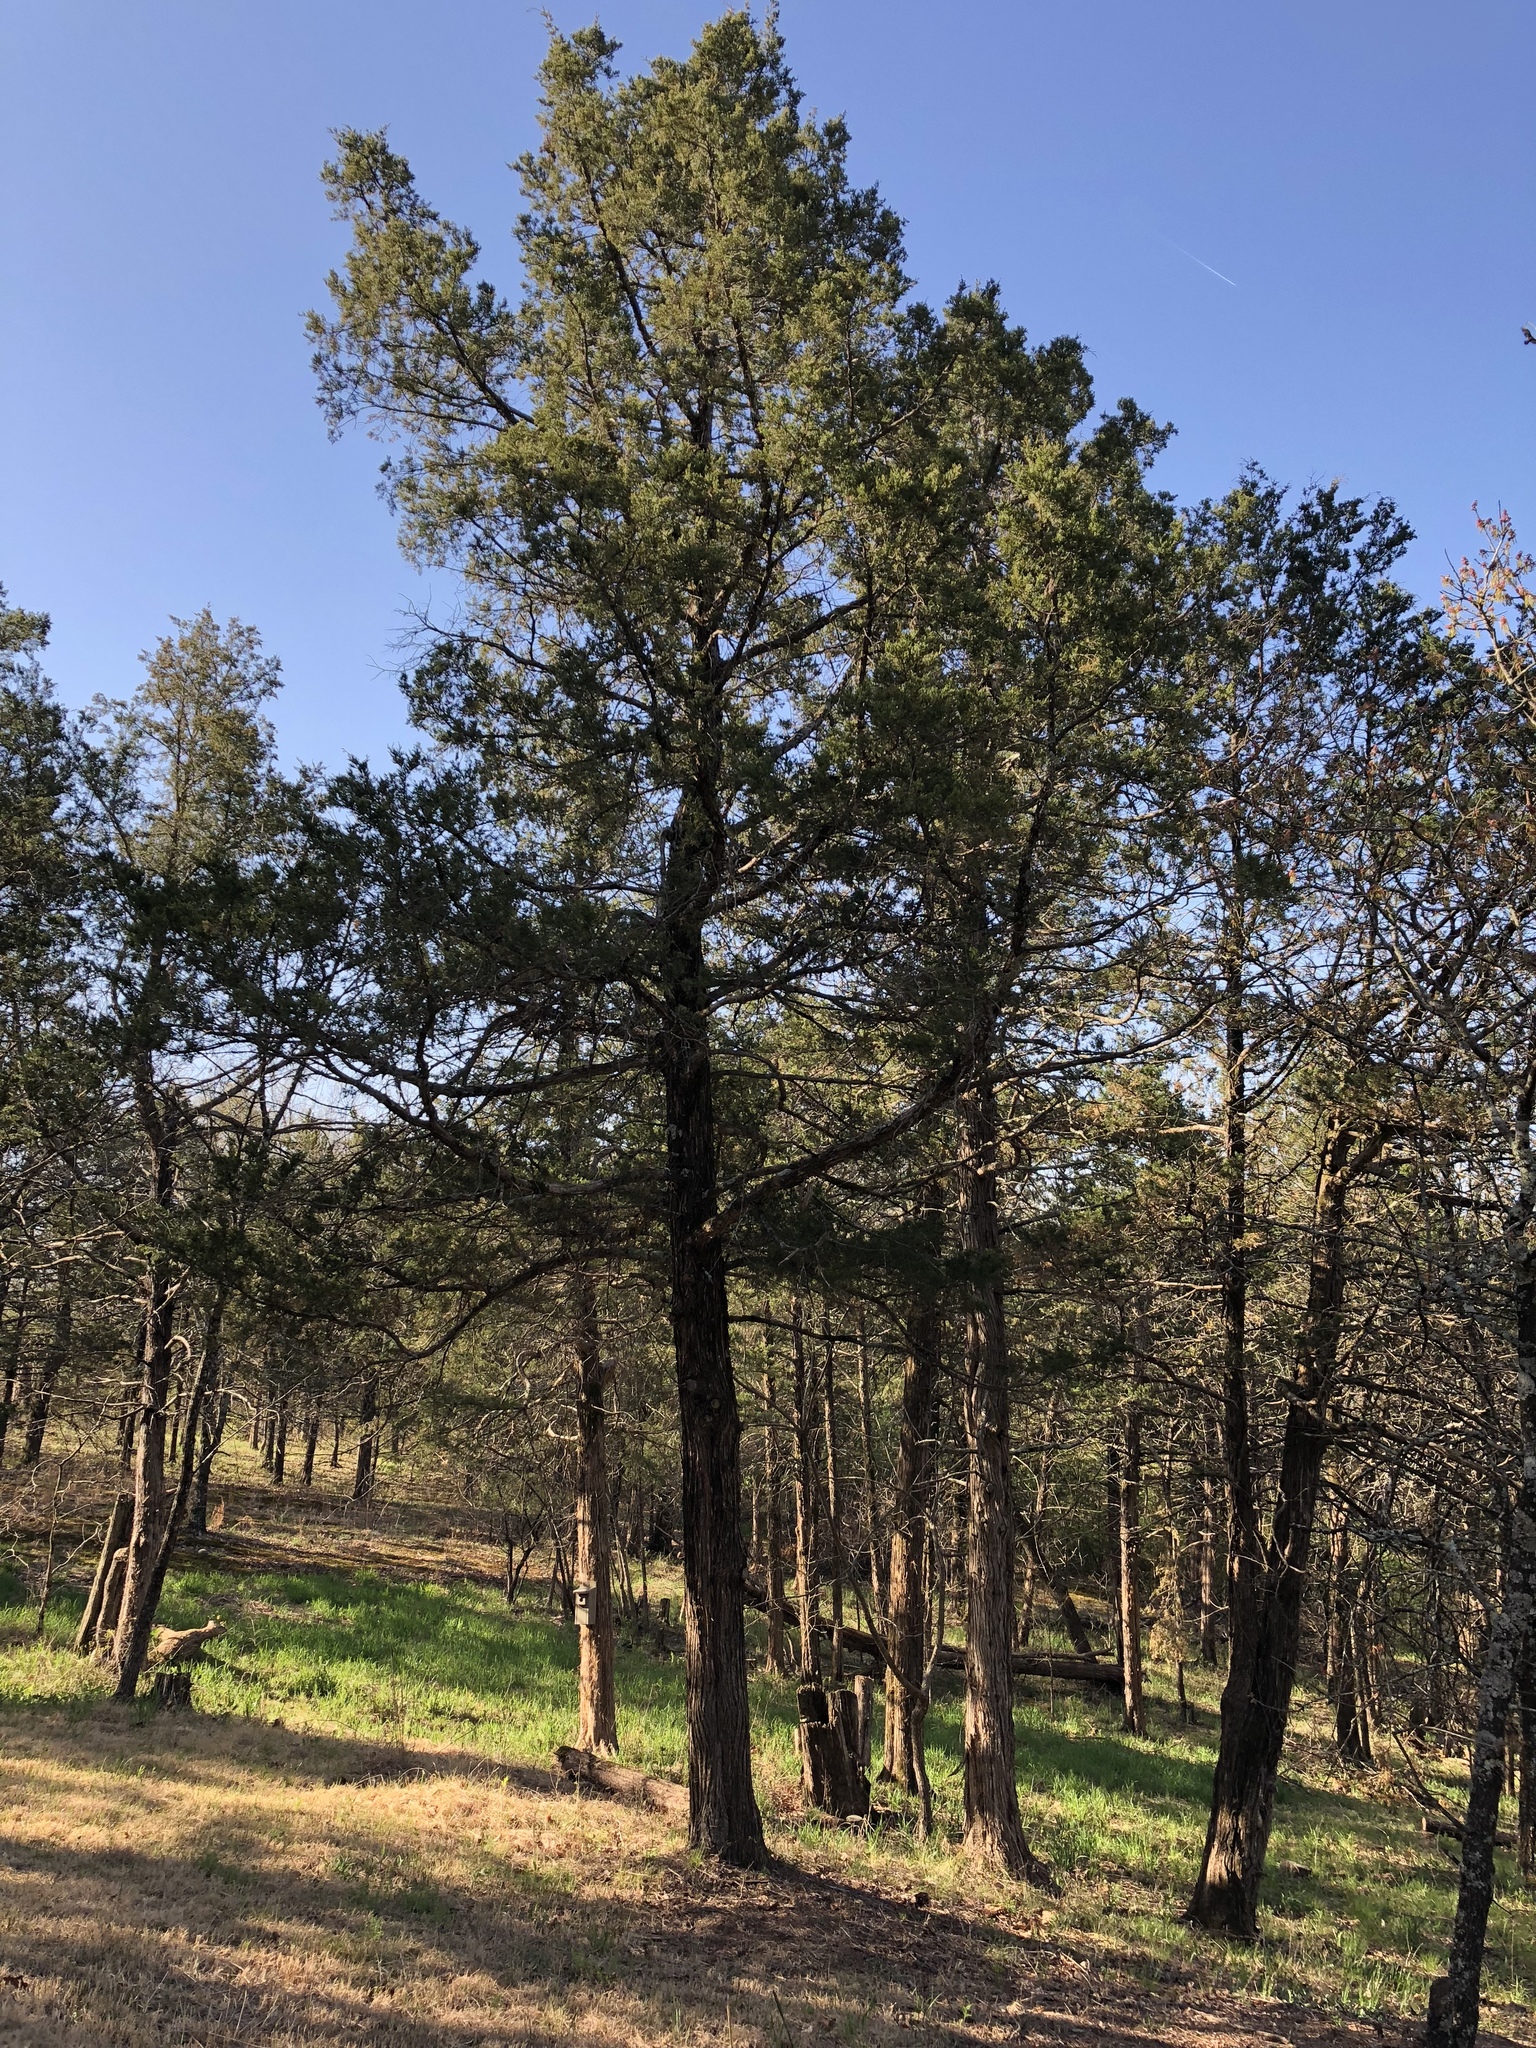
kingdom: Plantae
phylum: Tracheophyta
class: Pinopsida
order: Pinales
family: Cupressaceae
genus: Juniperus
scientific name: Juniperus virginiana
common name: Red juniper
